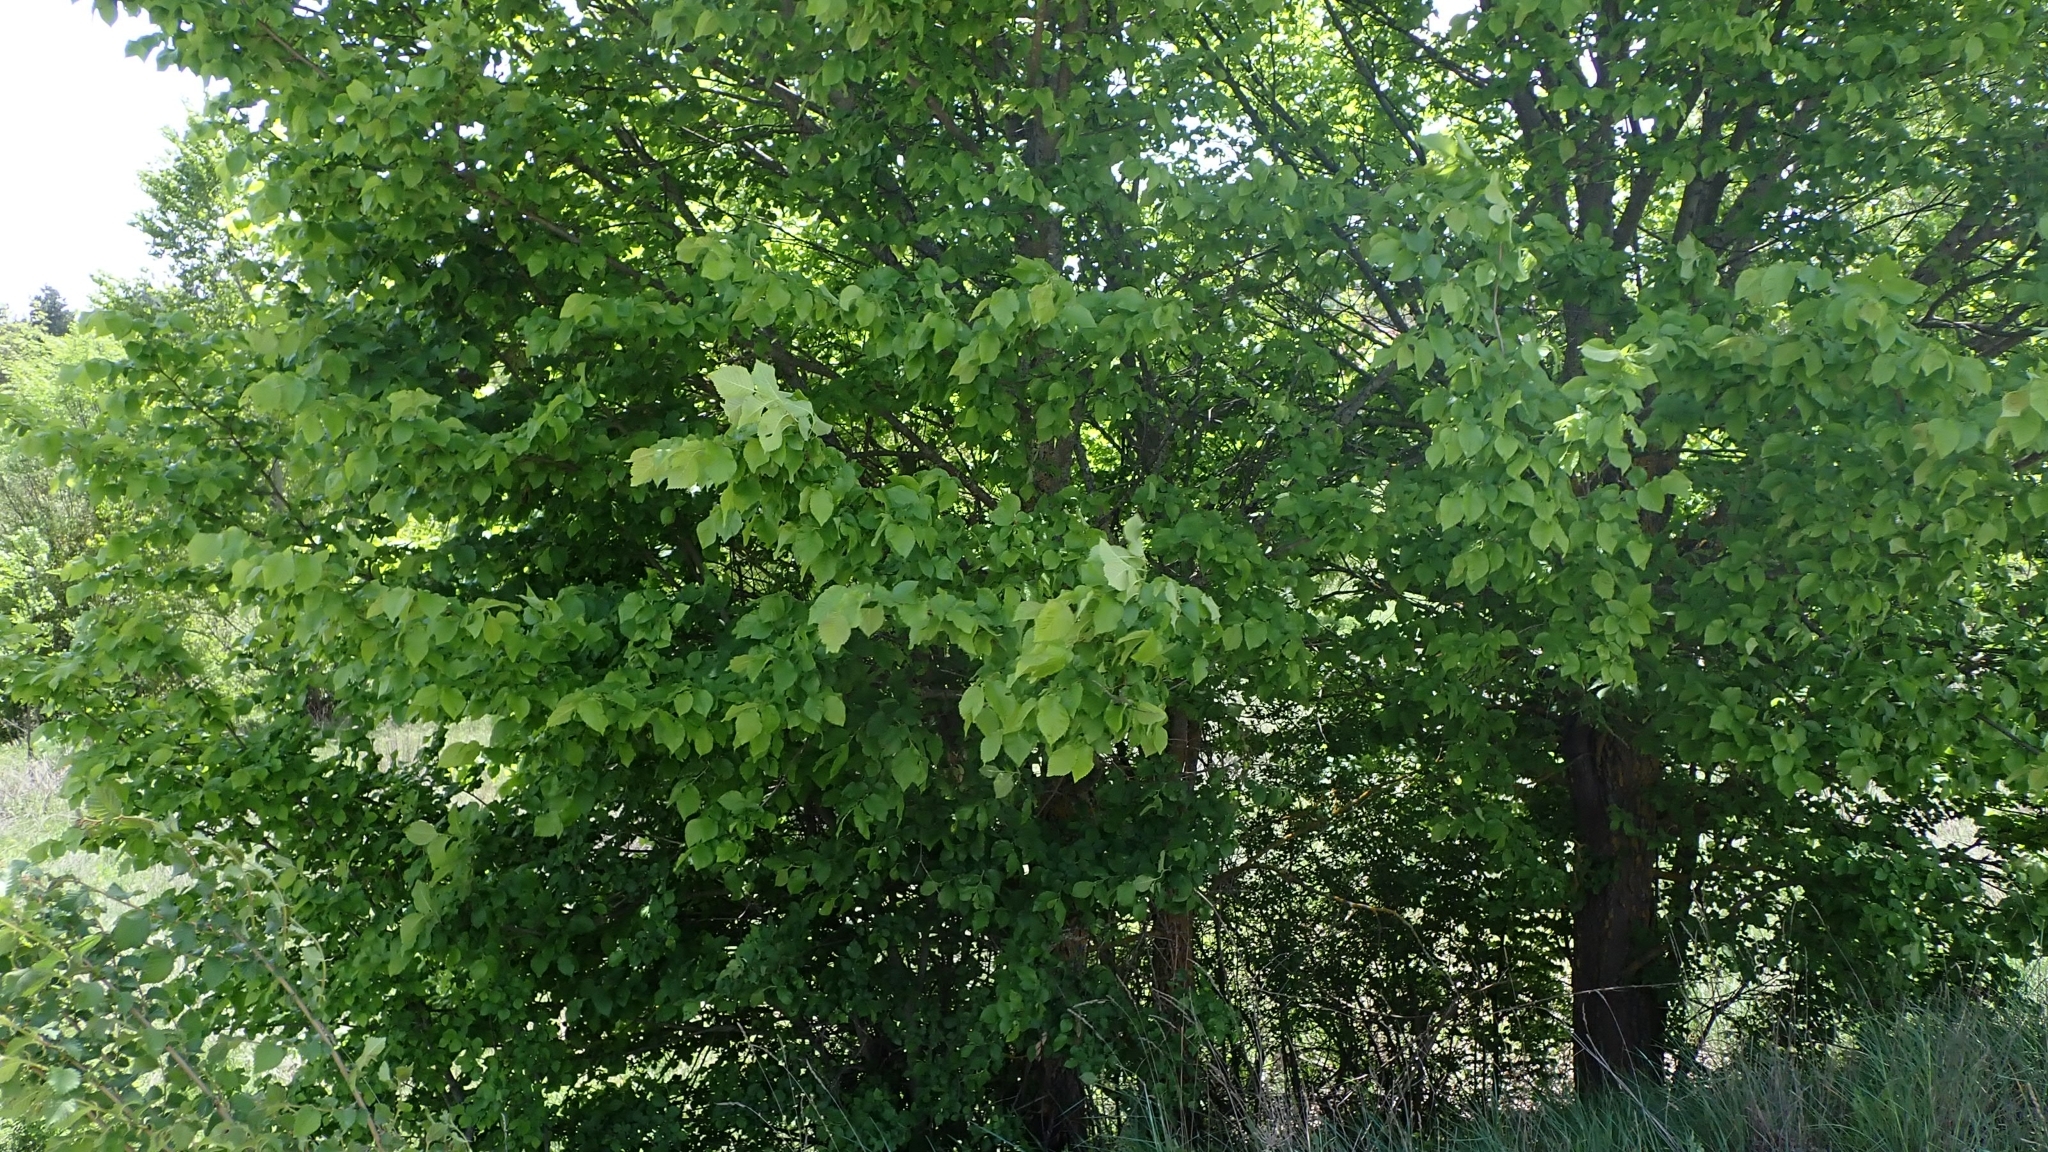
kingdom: Plantae
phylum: Tracheophyta
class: Magnoliopsida
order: Rosales
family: Ulmaceae
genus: Ulmus
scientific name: Ulmus minor
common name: Small-leaved elm
